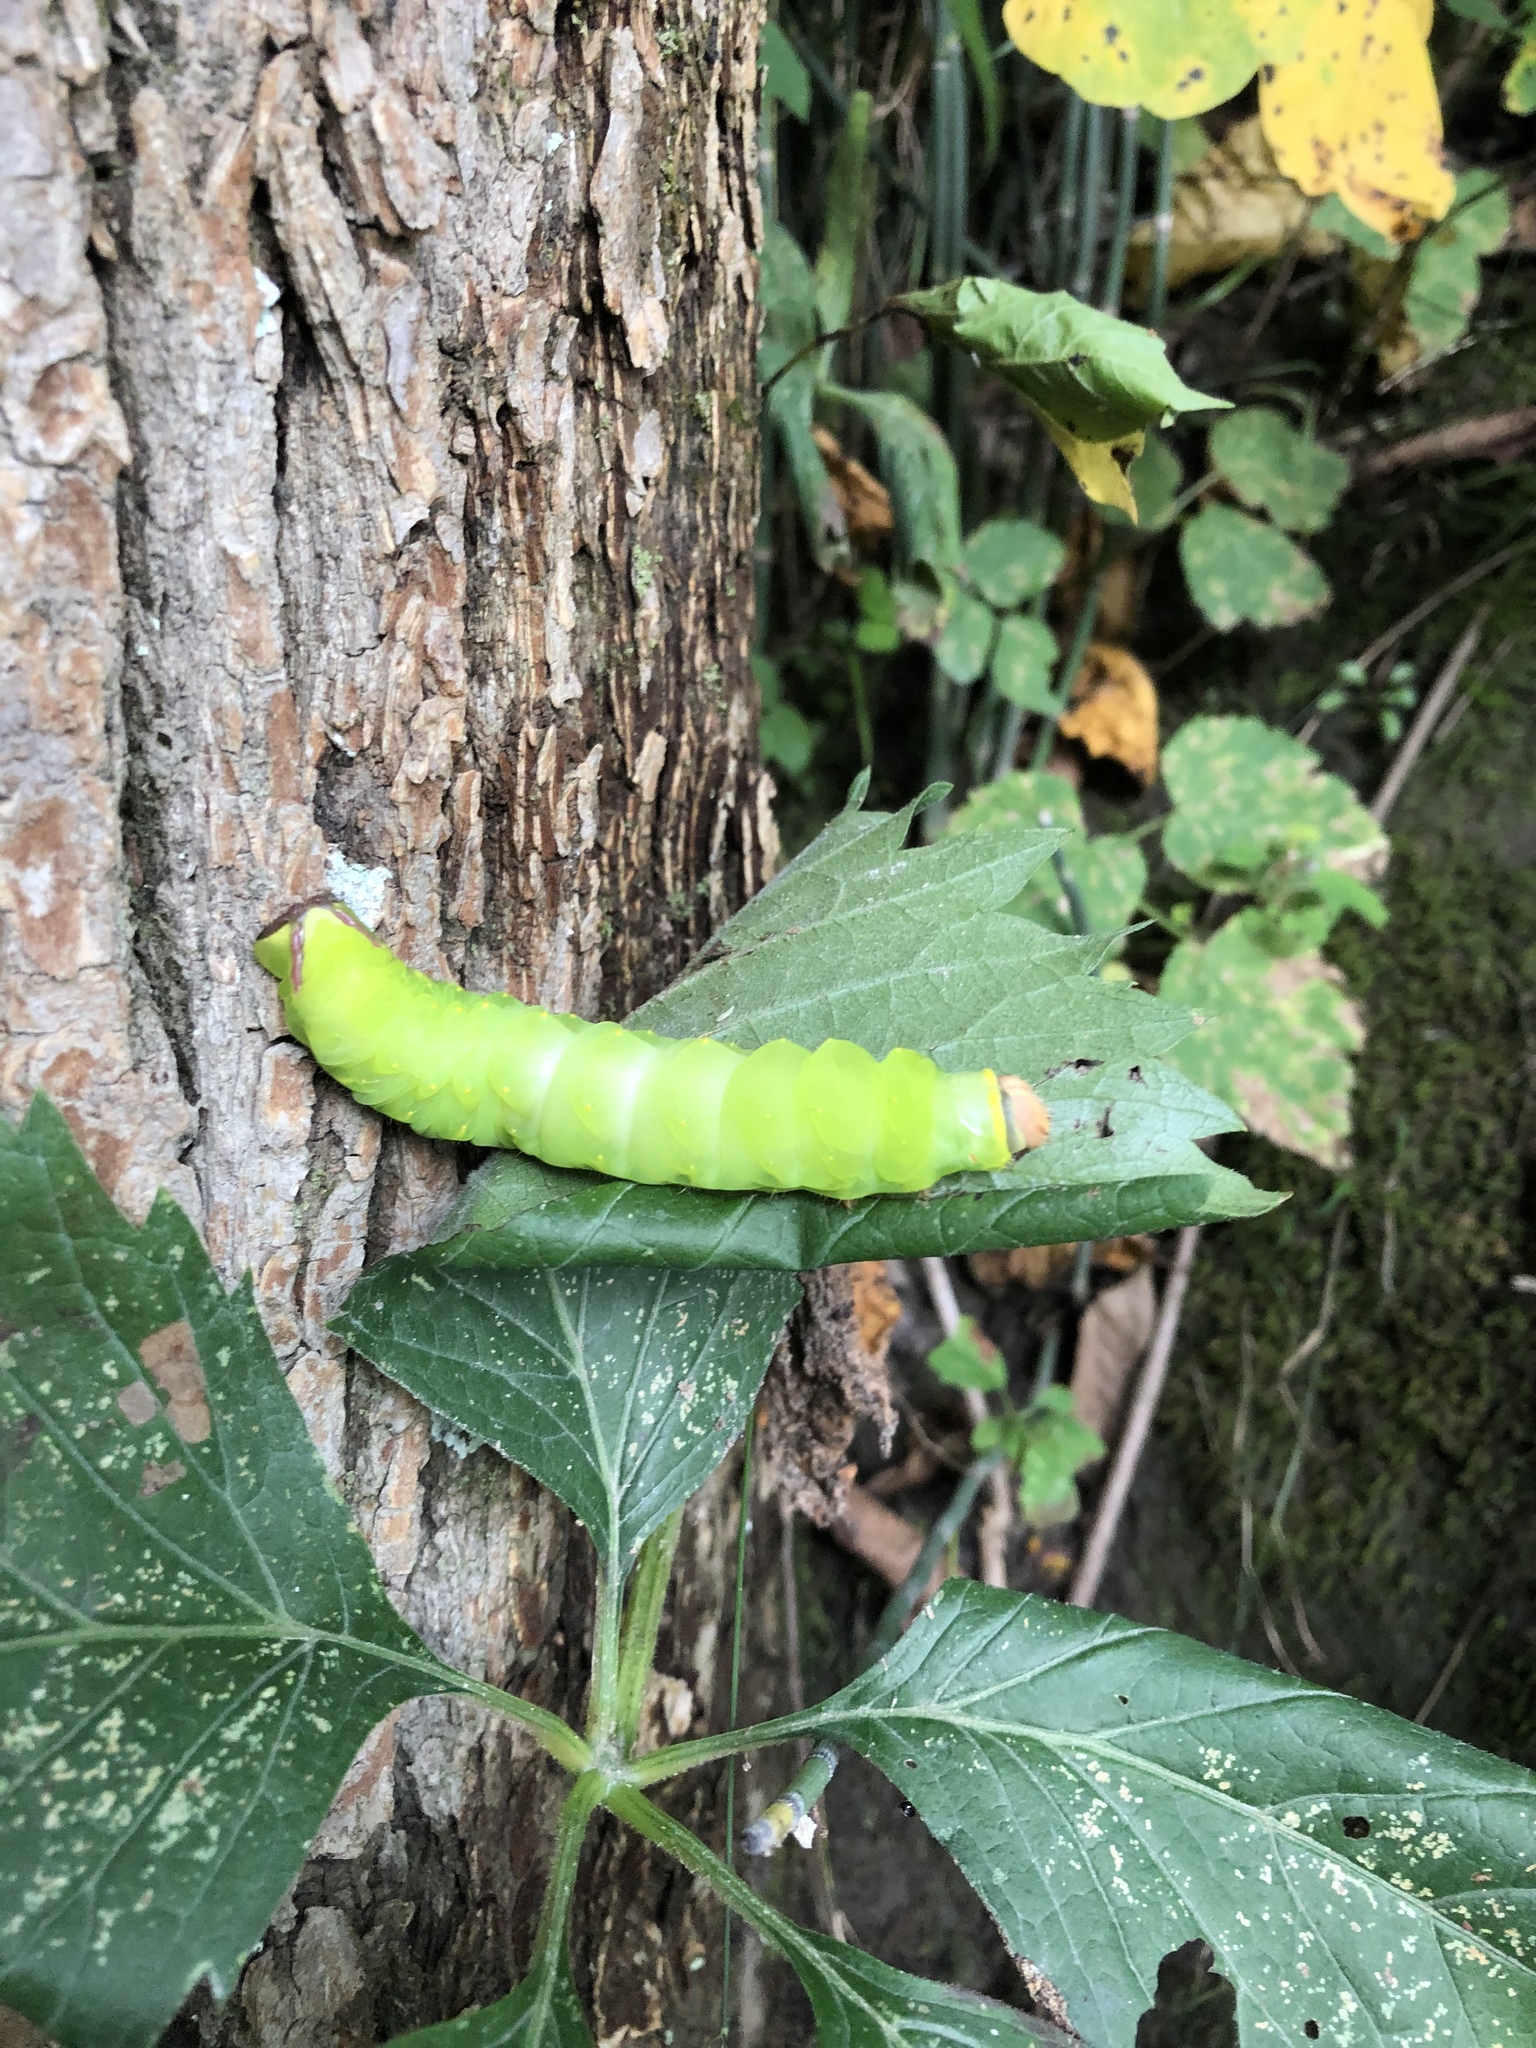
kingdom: Animalia
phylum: Arthropoda
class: Insecta
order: Lepidoptera
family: Saturniidae
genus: Antheraea
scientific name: Antheraea polyphemus
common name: Polyphemus moth
